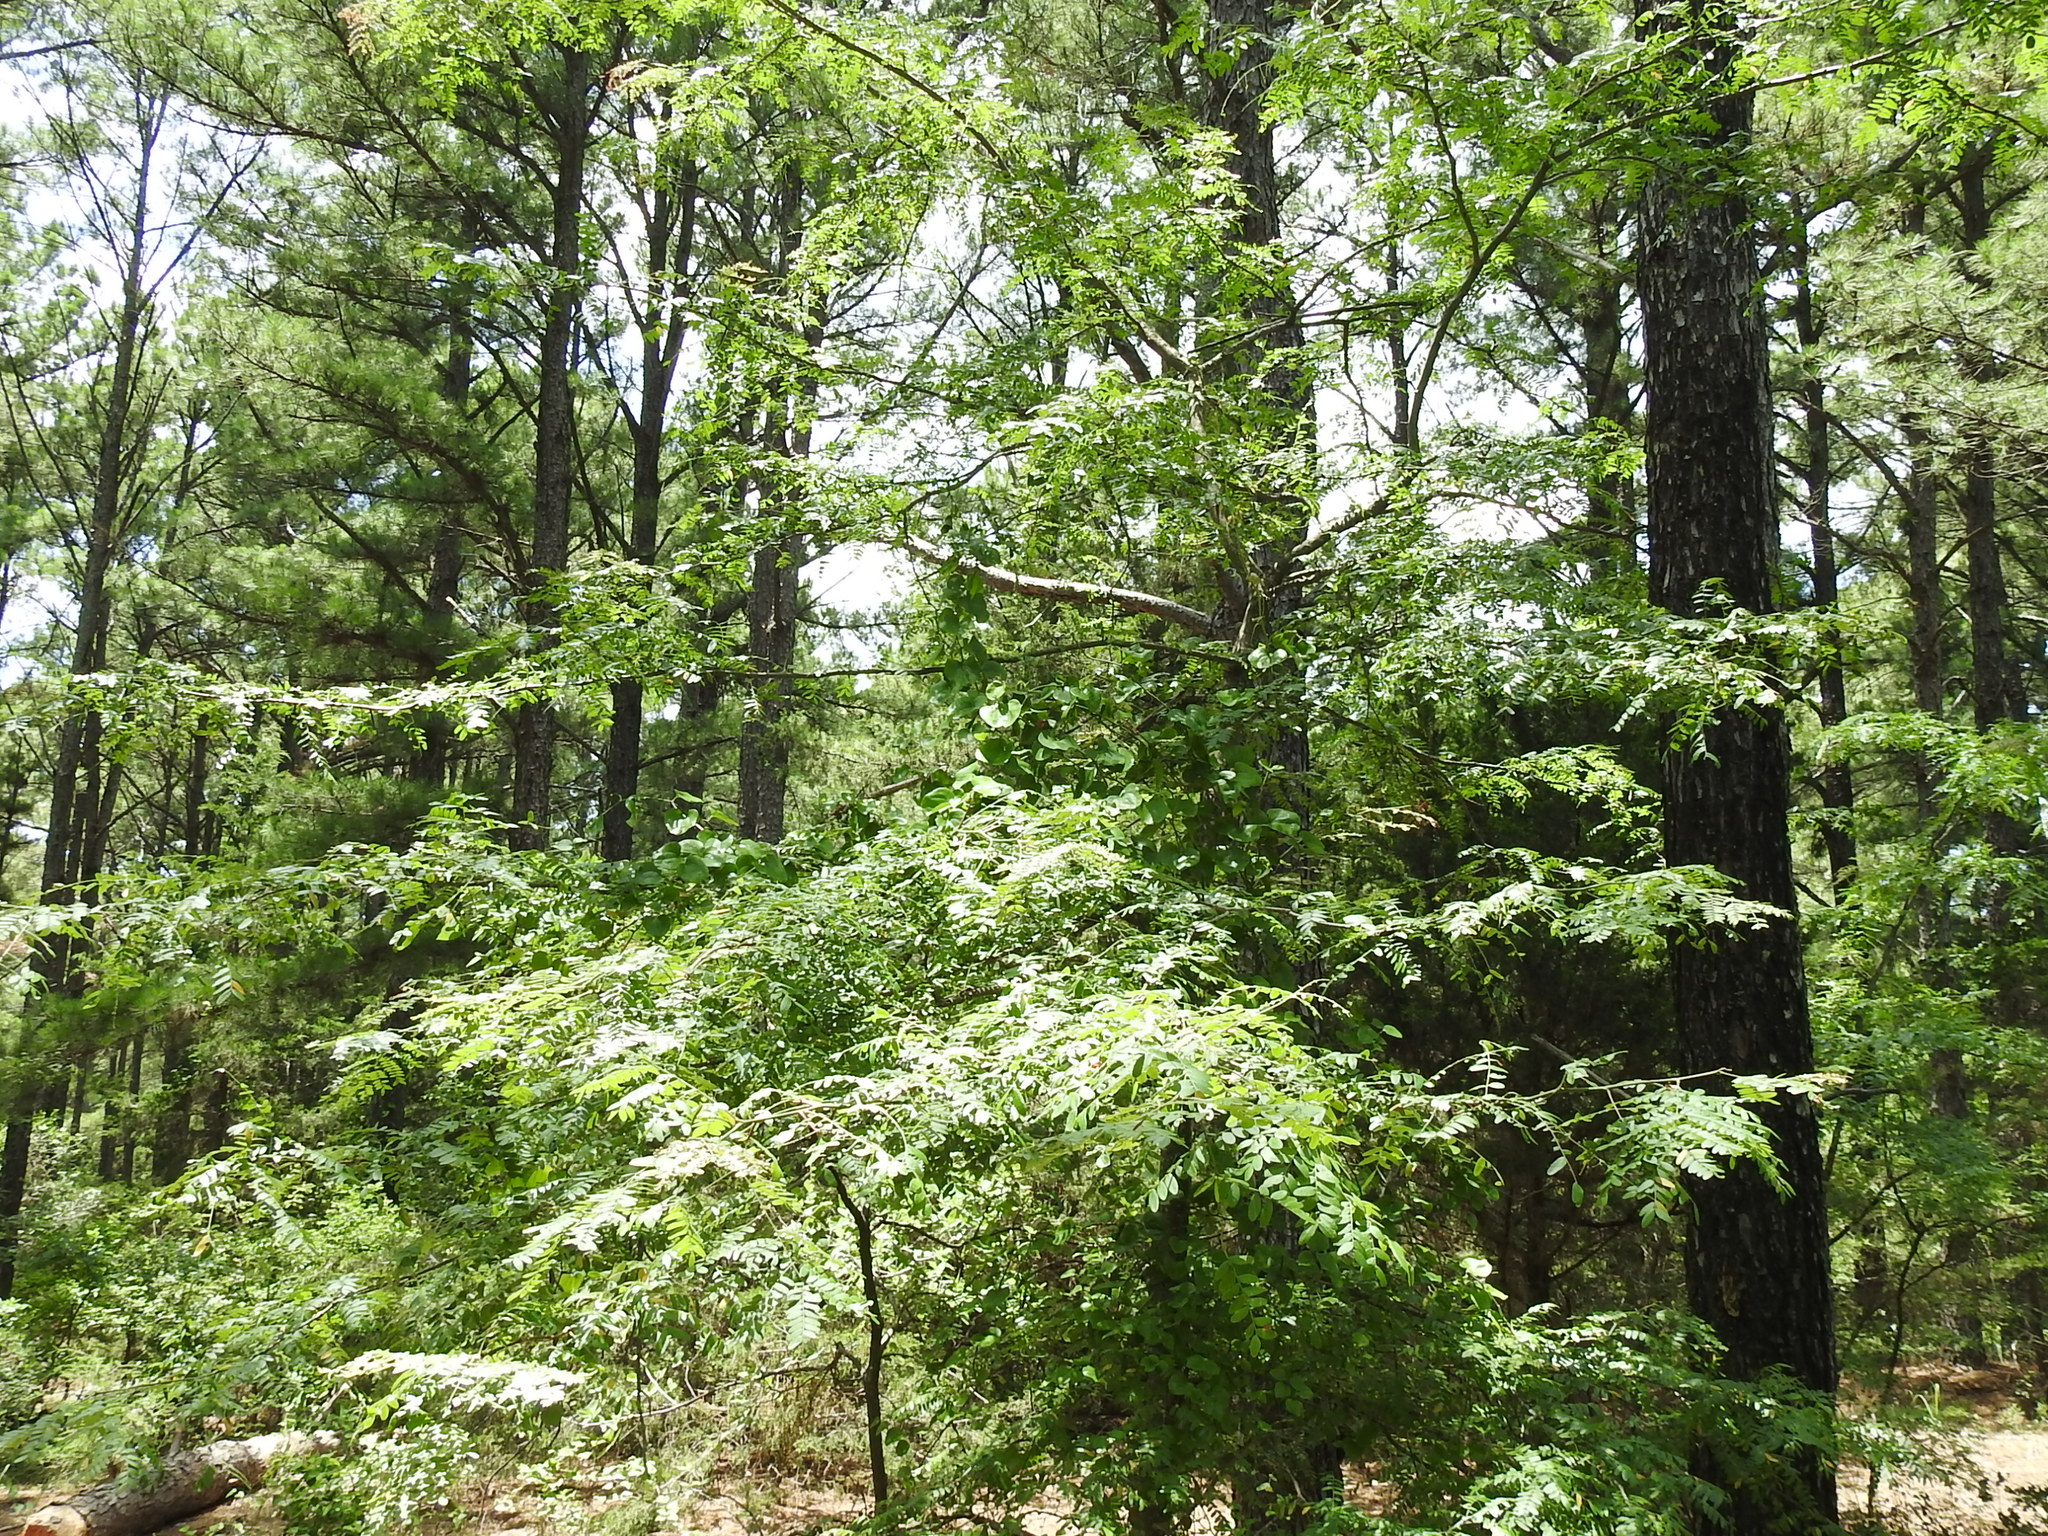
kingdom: Plantae
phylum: Tracheophyta
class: Magnoliopsida
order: Fabales
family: Fabaceae
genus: Gleditsia
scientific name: Gleditsia triacanthos
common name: Common honeylocust
